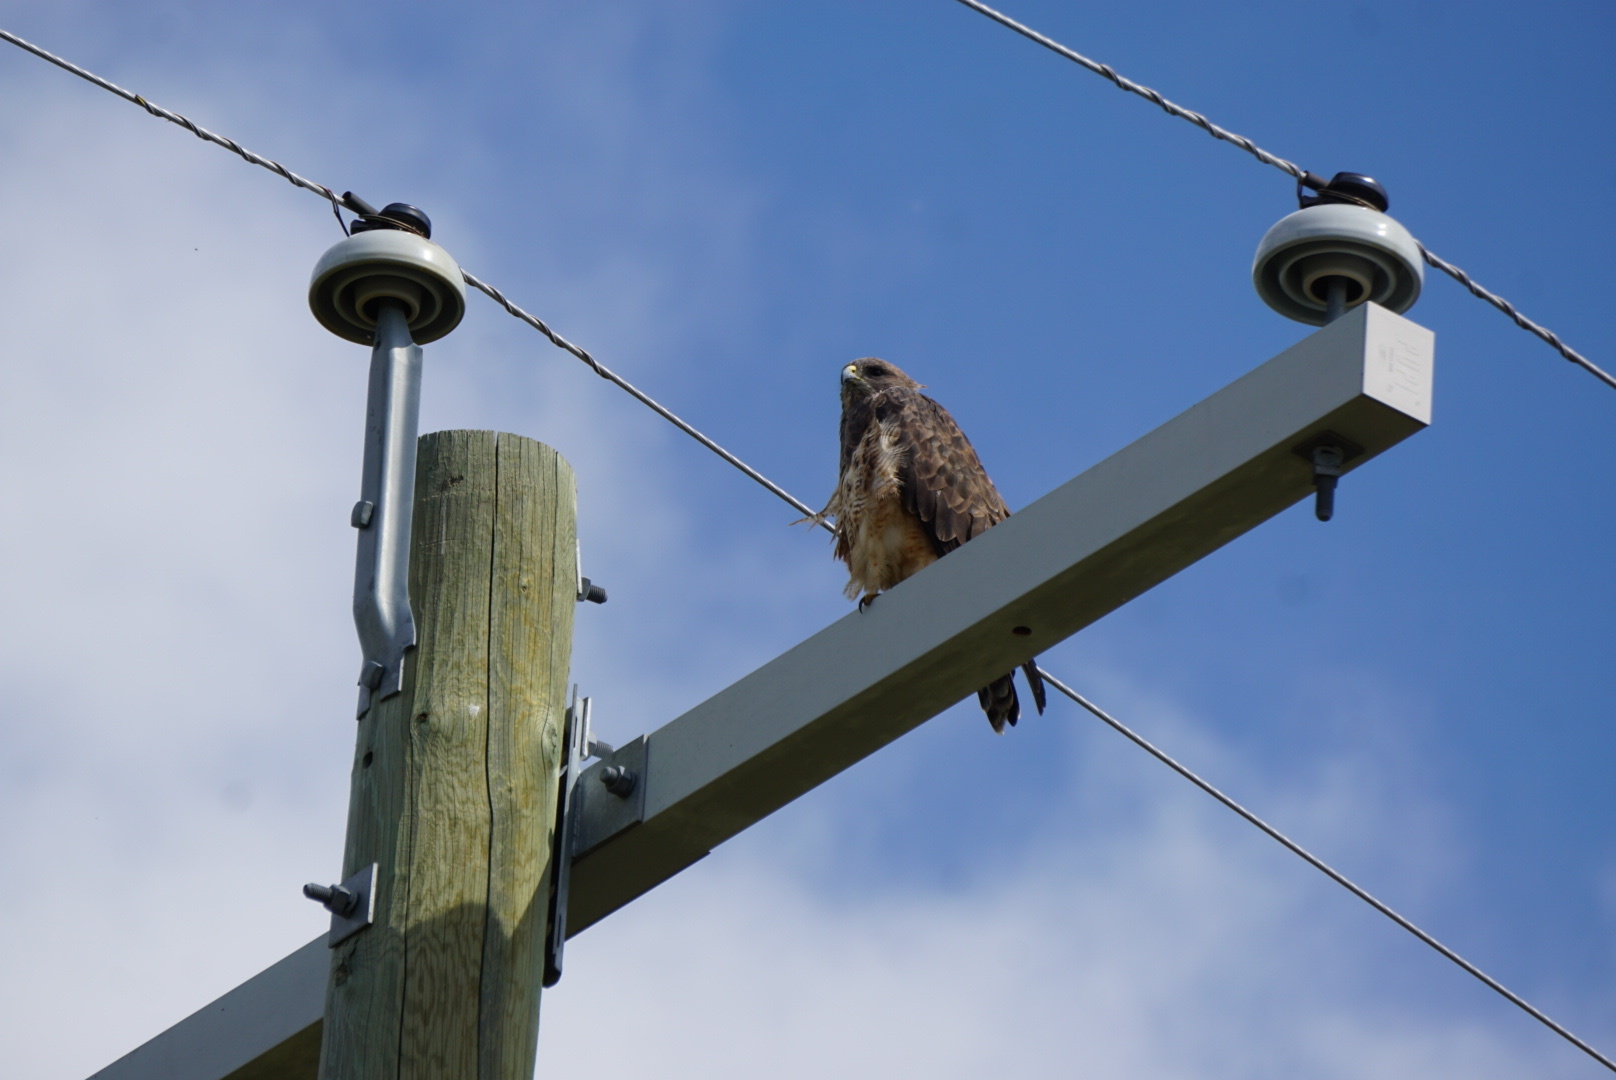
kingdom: Animalia
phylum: Chordata
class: Aves
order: Accipitriformes
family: Accipitridae
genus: Buteo
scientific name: Buteo swainsoni
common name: Swainson's hawk
